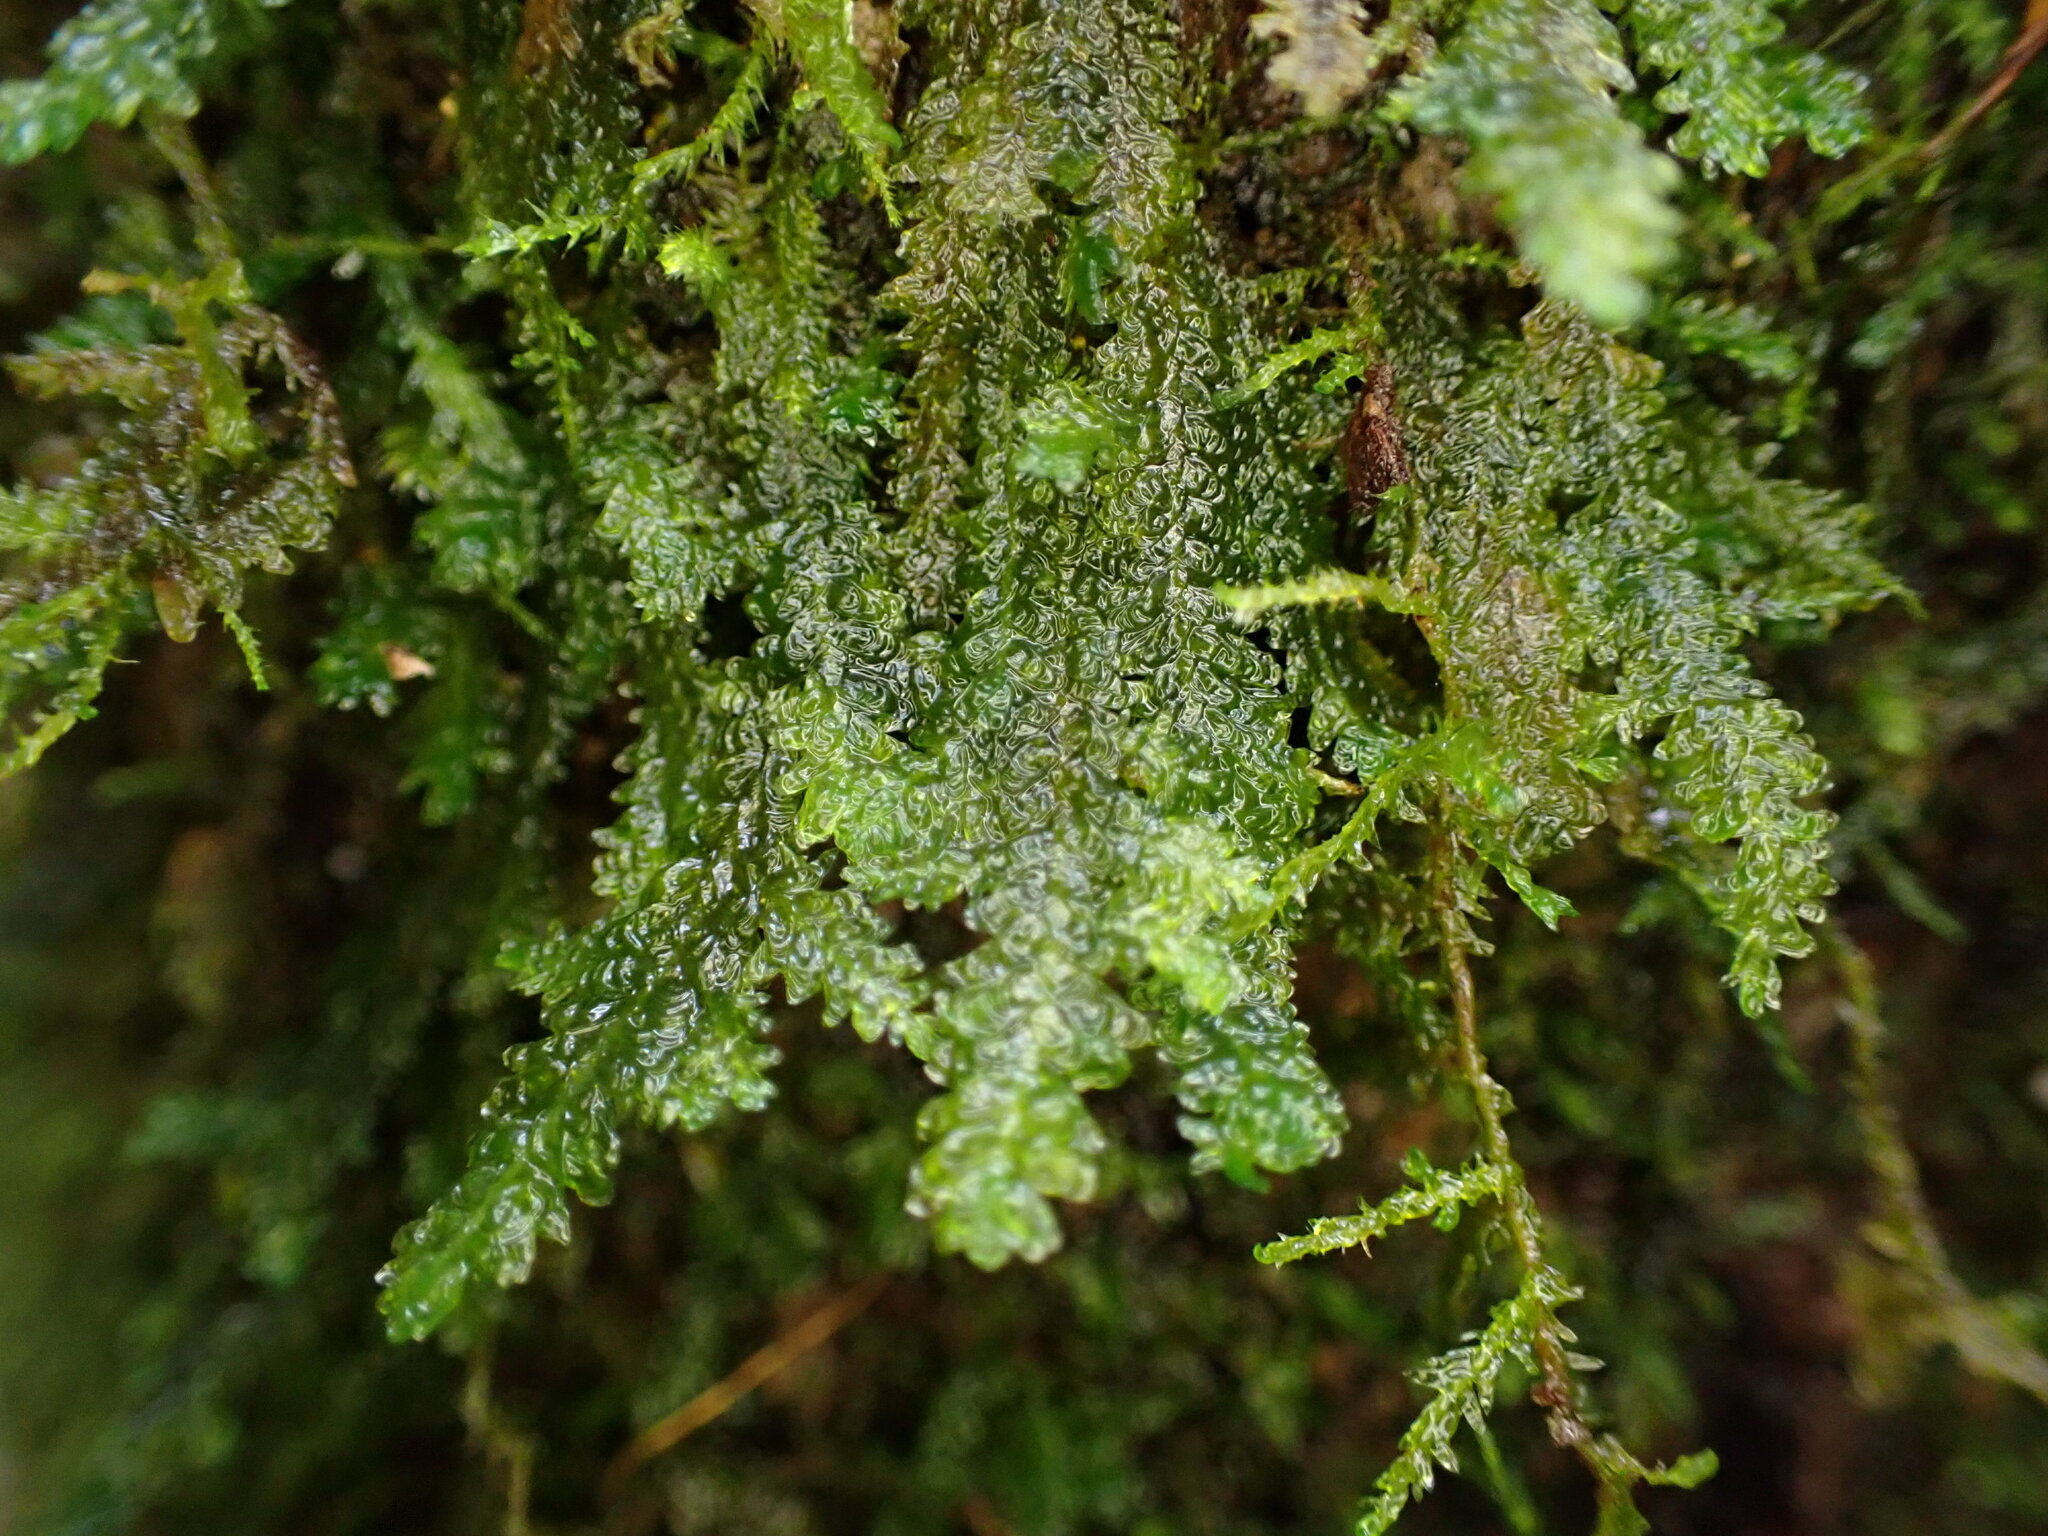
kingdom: Plantae
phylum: Bryophyta
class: Bryopsida
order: Hypnales
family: Neckeraceae
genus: Metaneckera
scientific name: Metaneckera menziesii
